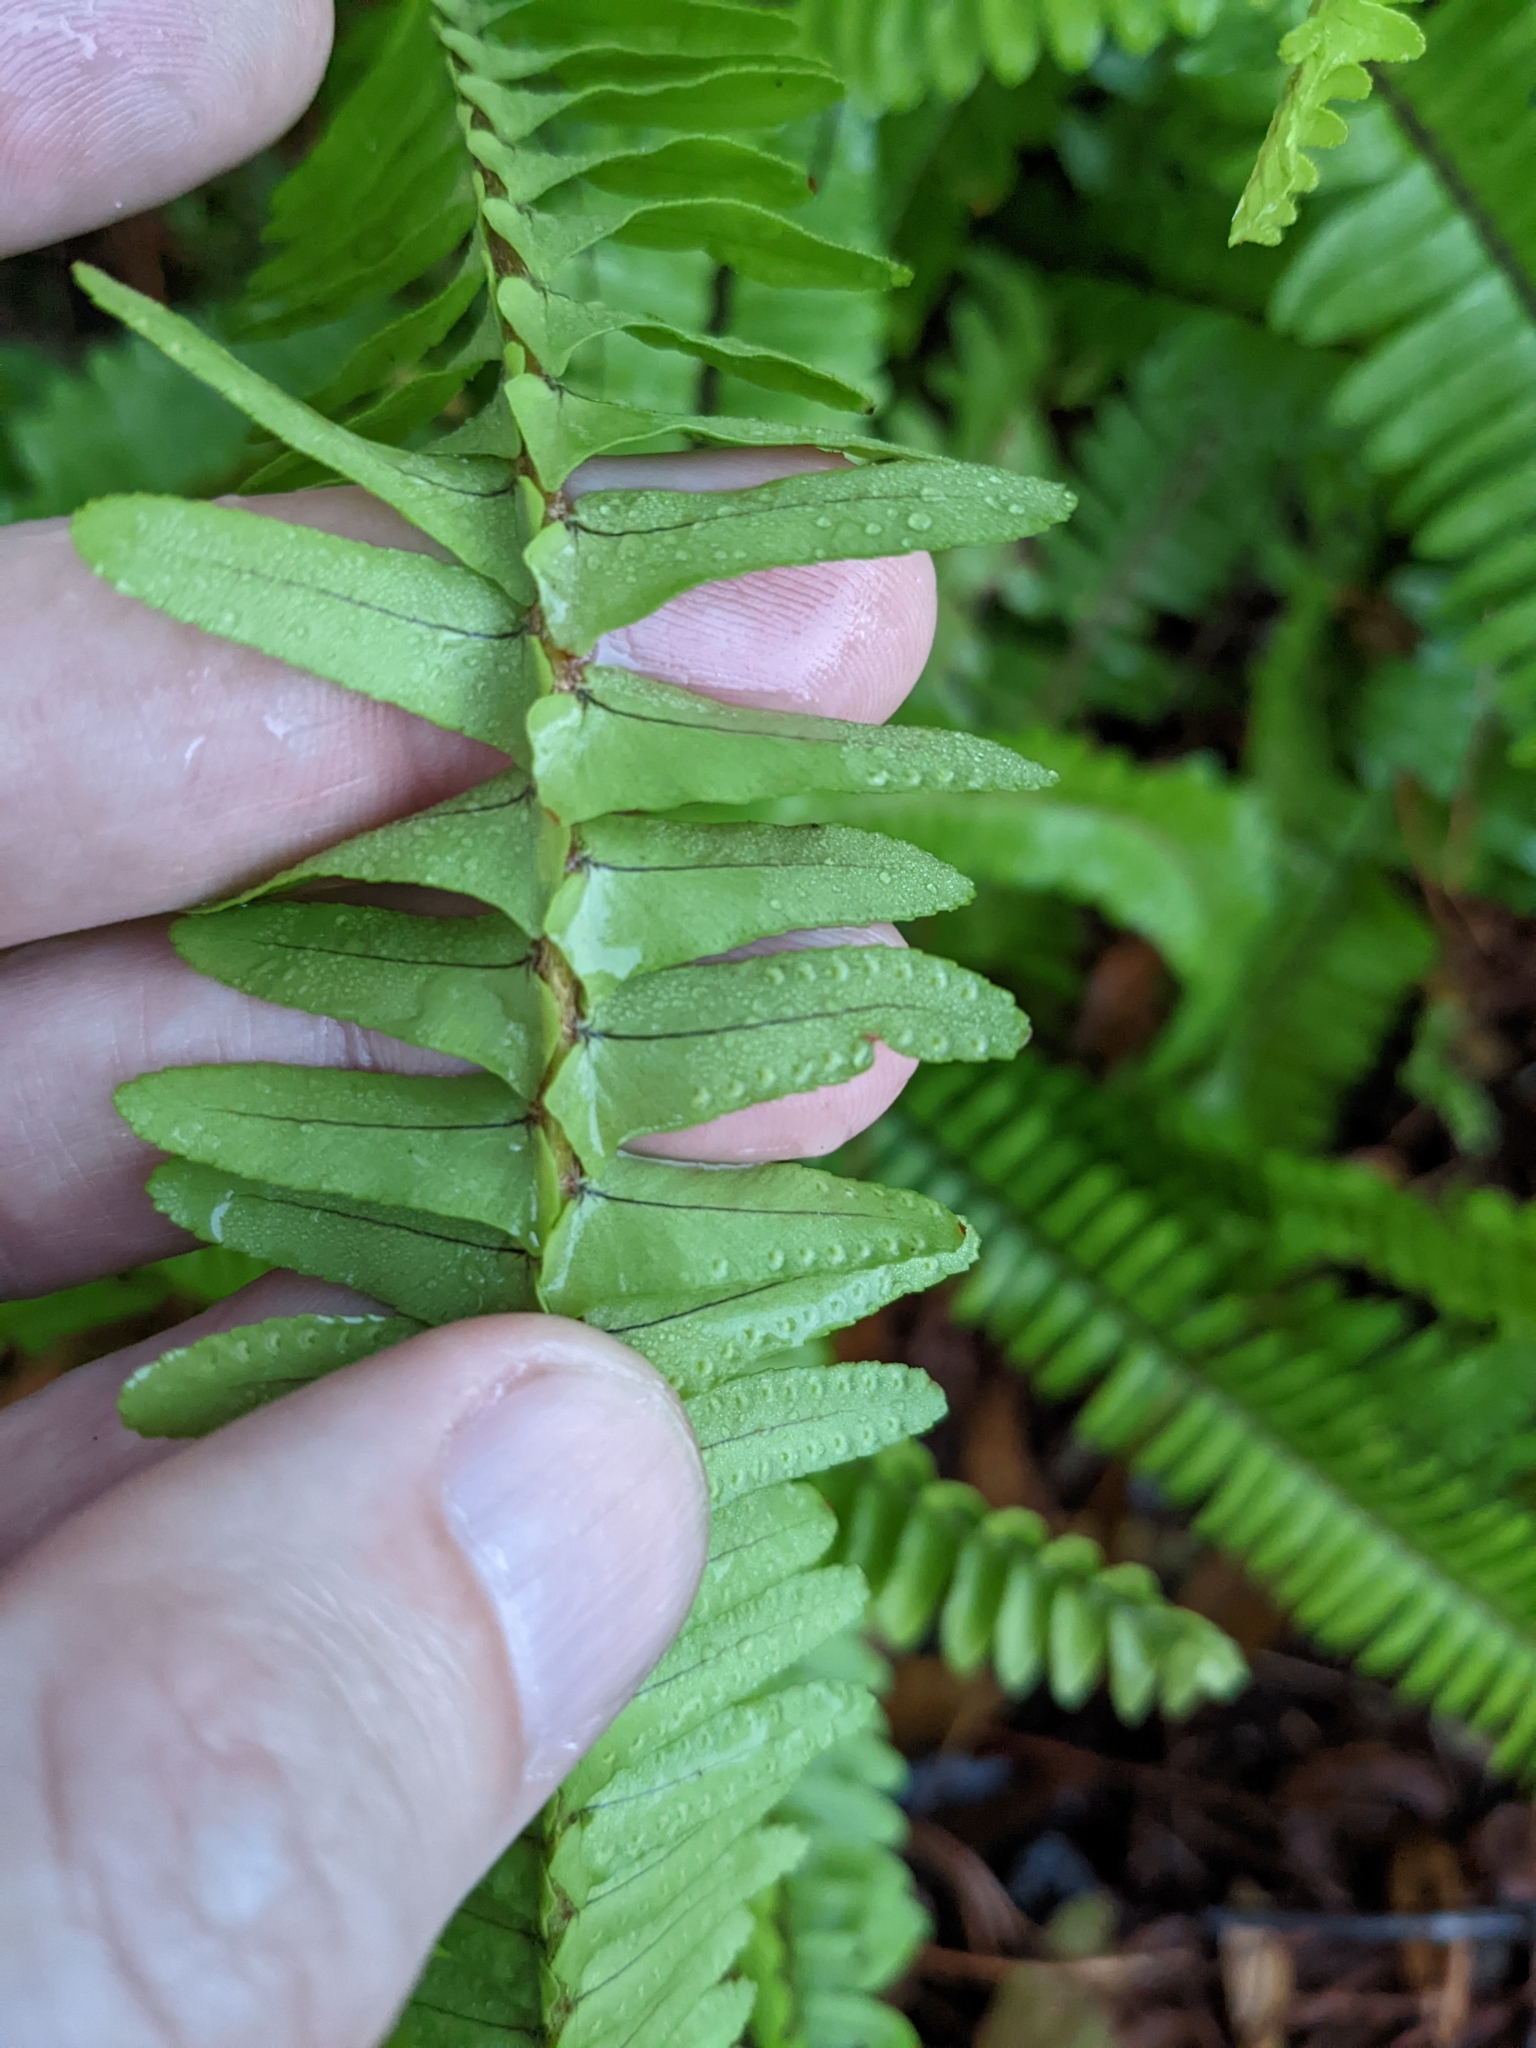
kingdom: Plantae
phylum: Tracheophyta
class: Polypodiopsida
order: Polypodiales
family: Nephrolepidaceae
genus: Nephrolepis
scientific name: Nephrolepis cordifolia
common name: Narrow swordfern
